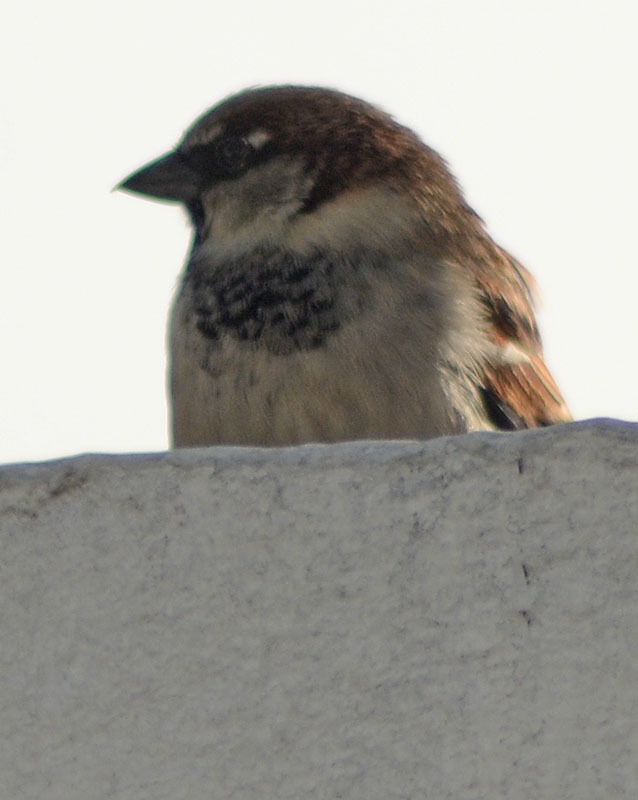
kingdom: Animalia
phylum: Chordata
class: Aves
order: Passeriformes
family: Passeridae
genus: Passer
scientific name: Passer domesticus
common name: House sparrow
